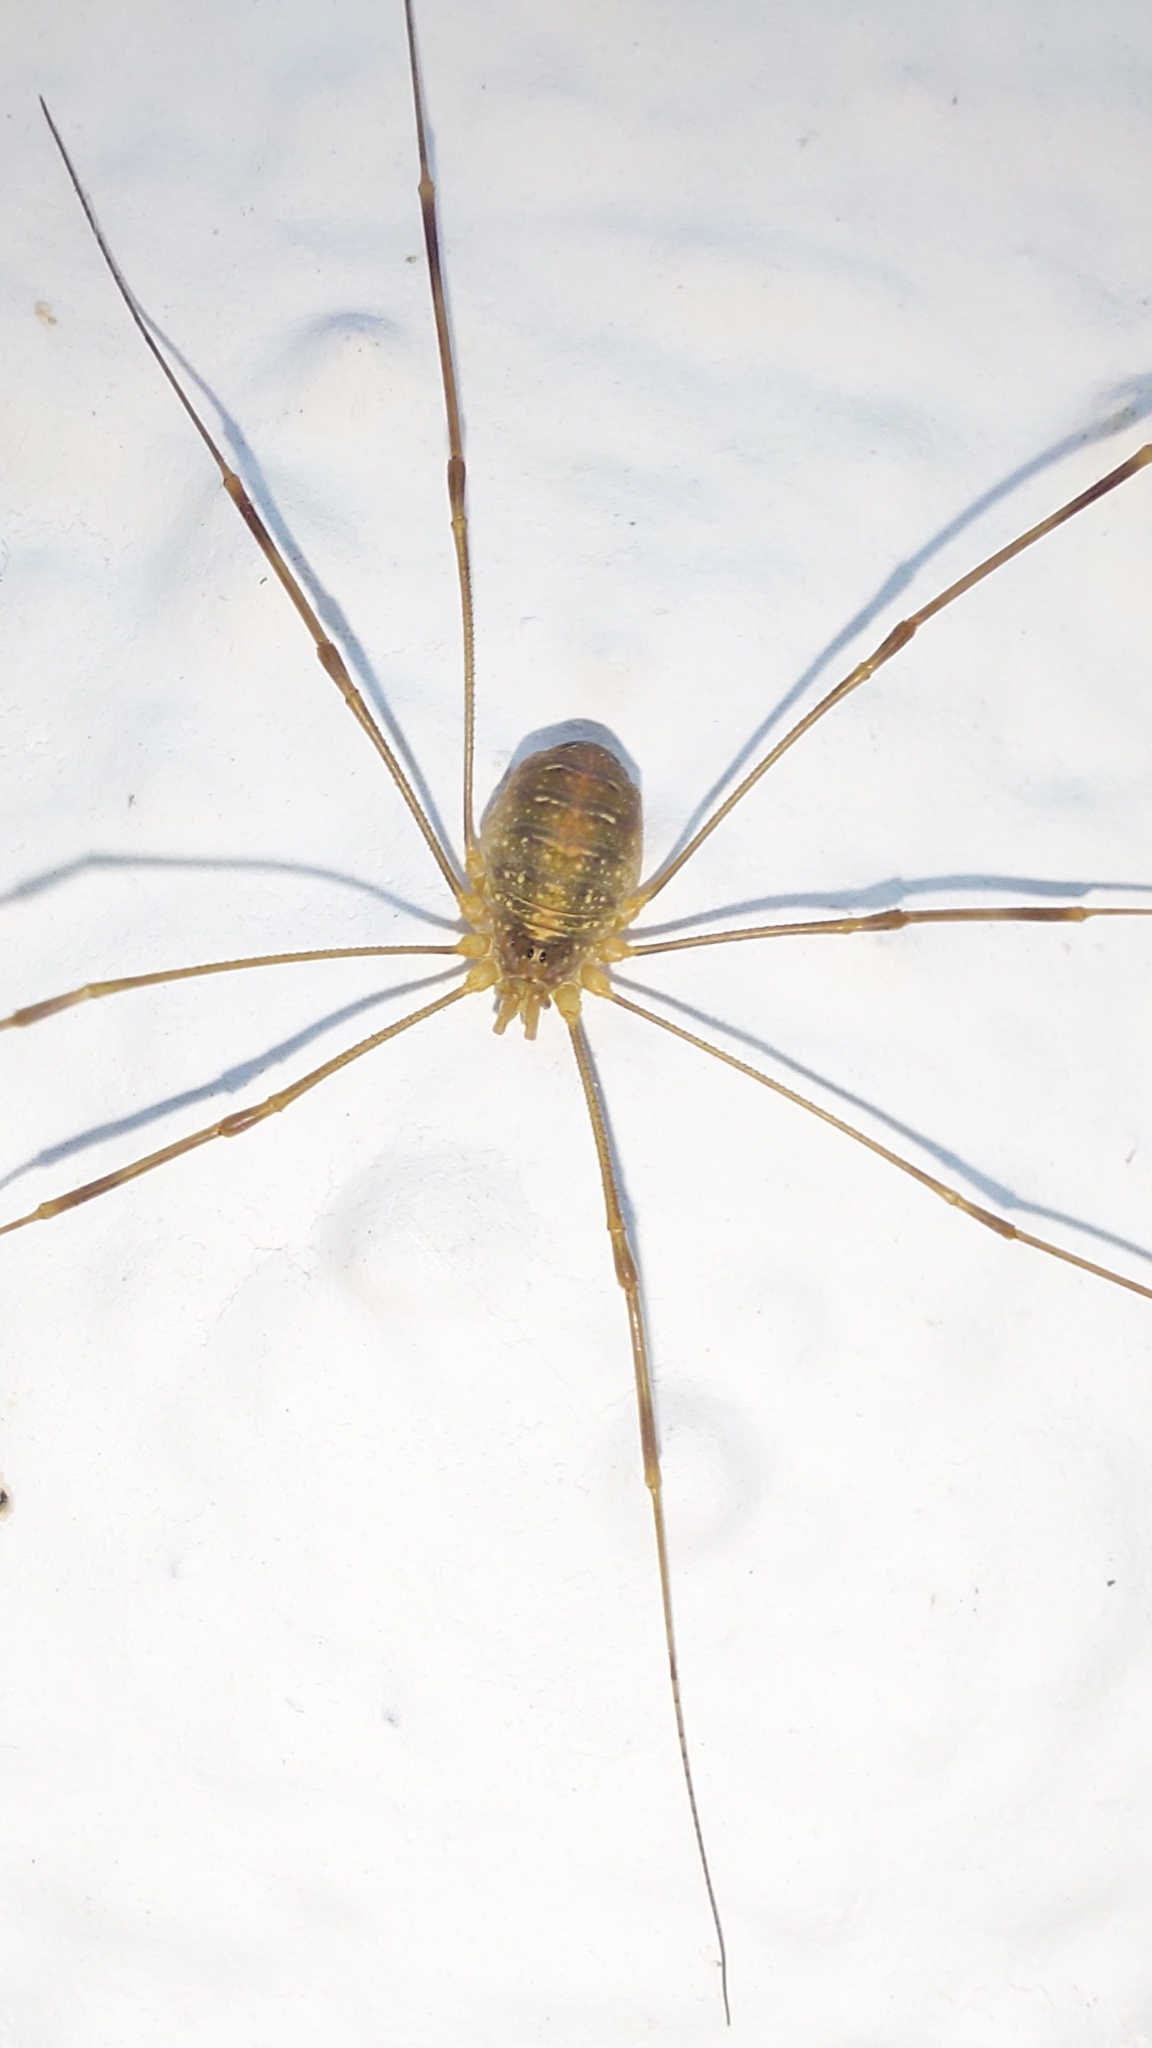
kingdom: Animalia
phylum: Arthropoda
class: Arachnida
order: Opiliones
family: Phalangiidae
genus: Opilio
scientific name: Opilio canestrinii
